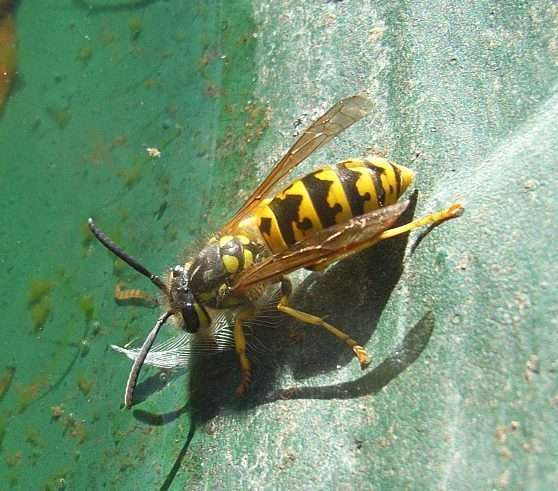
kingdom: Animalia
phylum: Arthropoda
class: Insecta
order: Hymenoptera
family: Vespidae
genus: Vespula
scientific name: Vespula germanica
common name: German wasp
